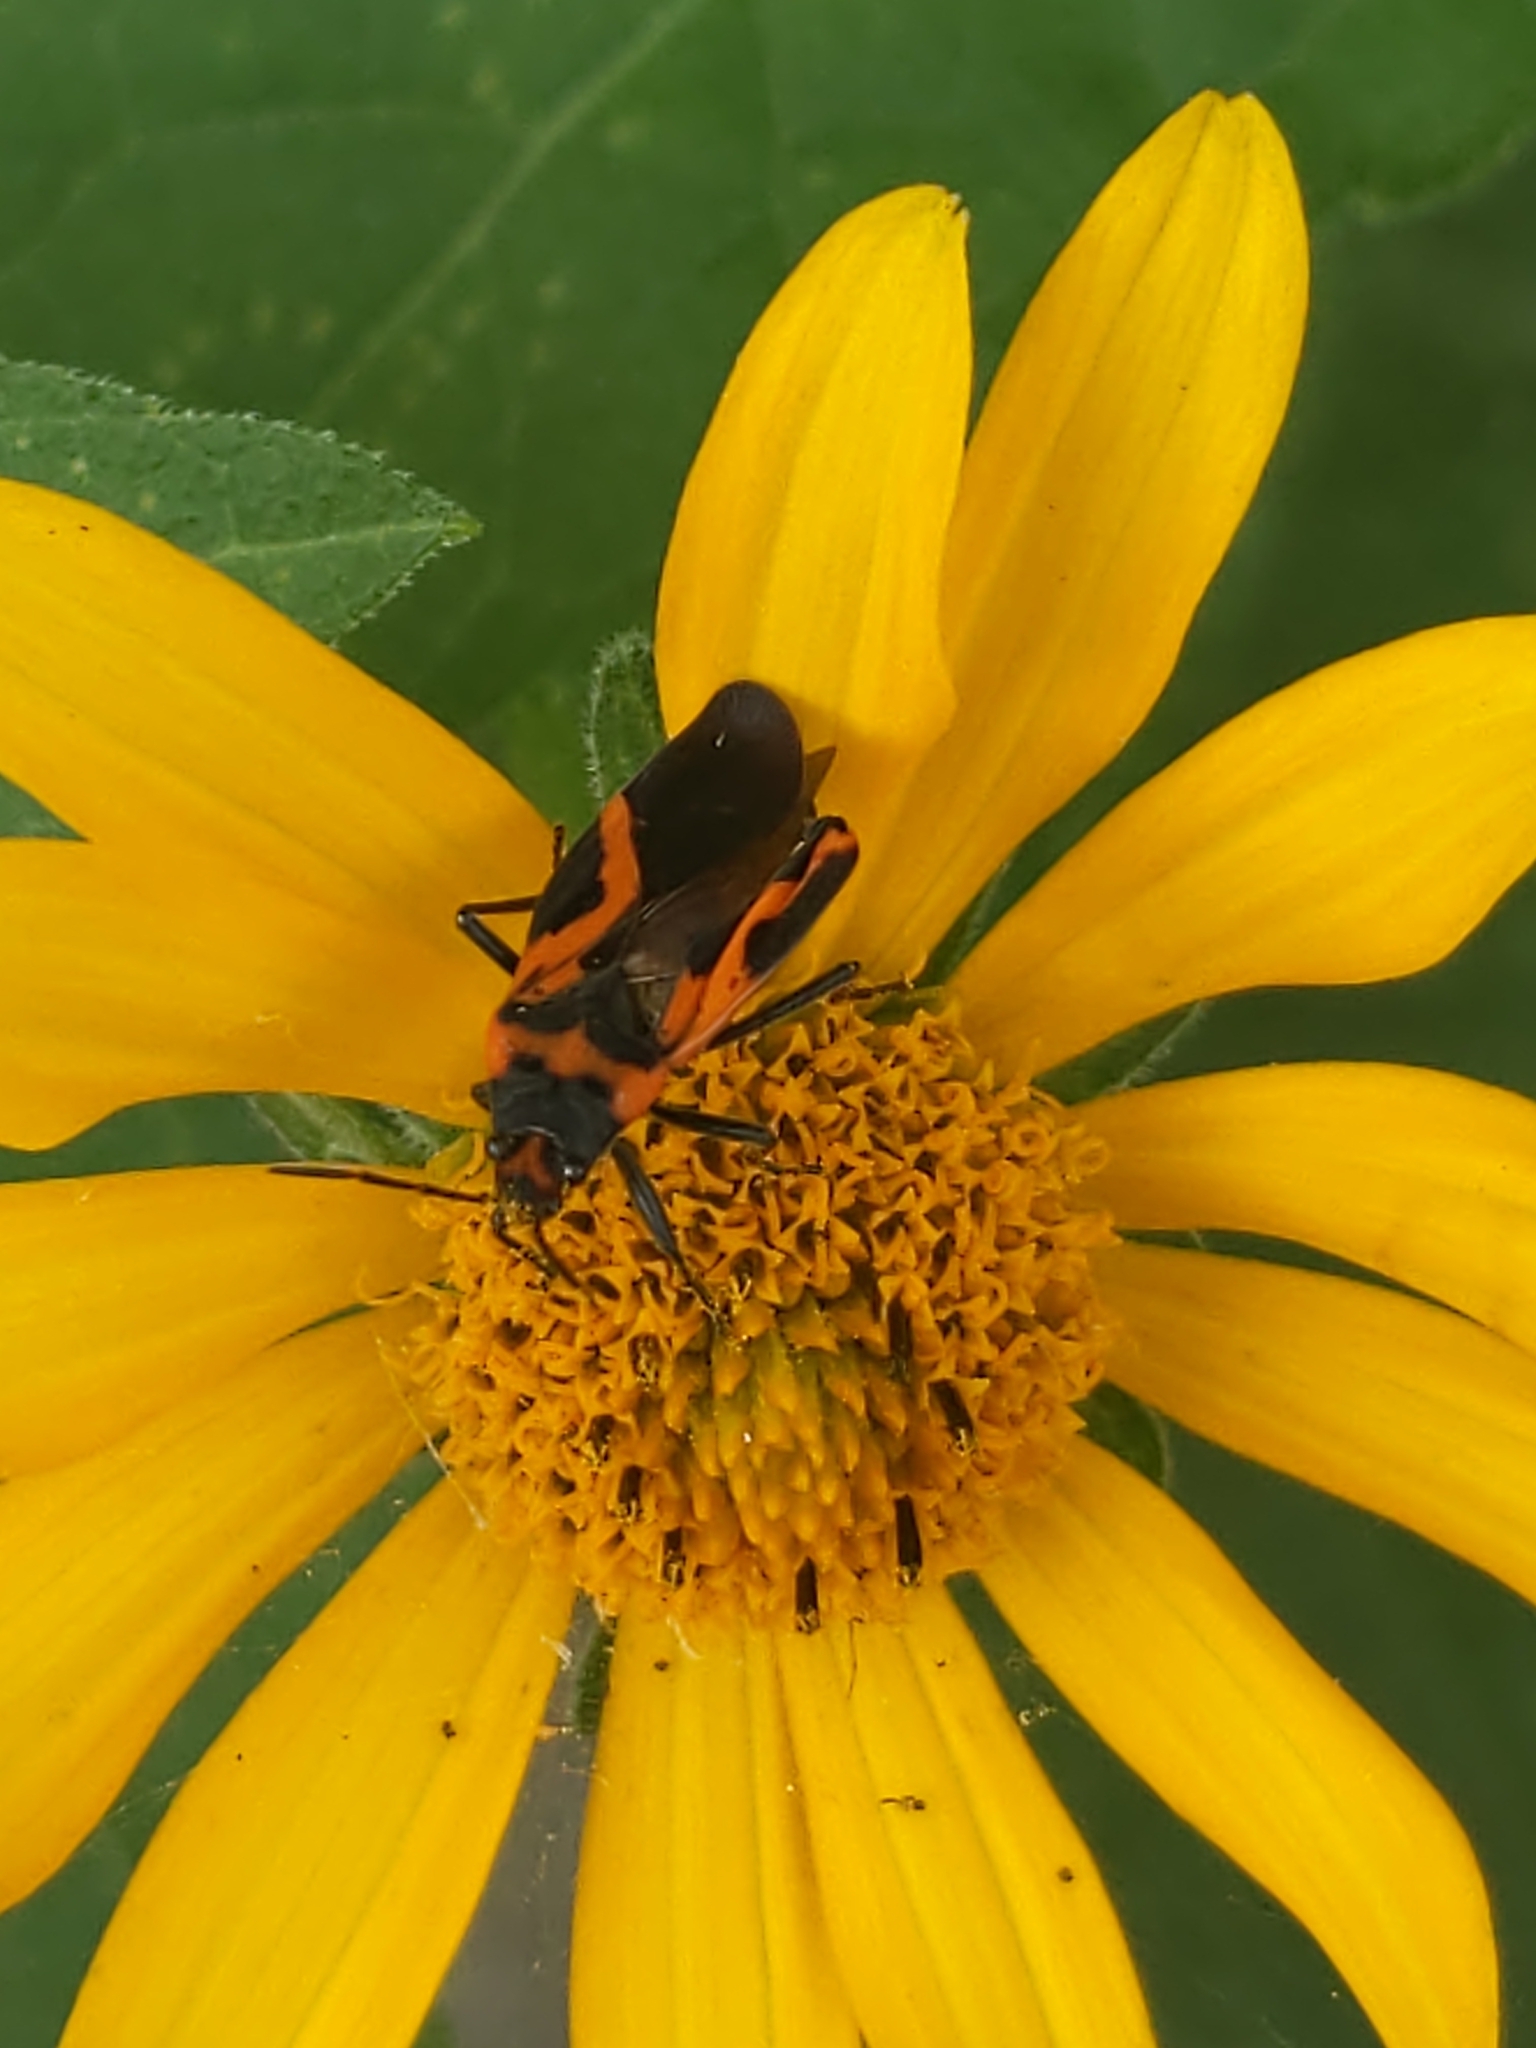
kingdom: Animalia
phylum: Arthropoda
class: Insecta
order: Hemiptera
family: Lygaeidae
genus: Lygaeus
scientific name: Lygaeus turcicus
